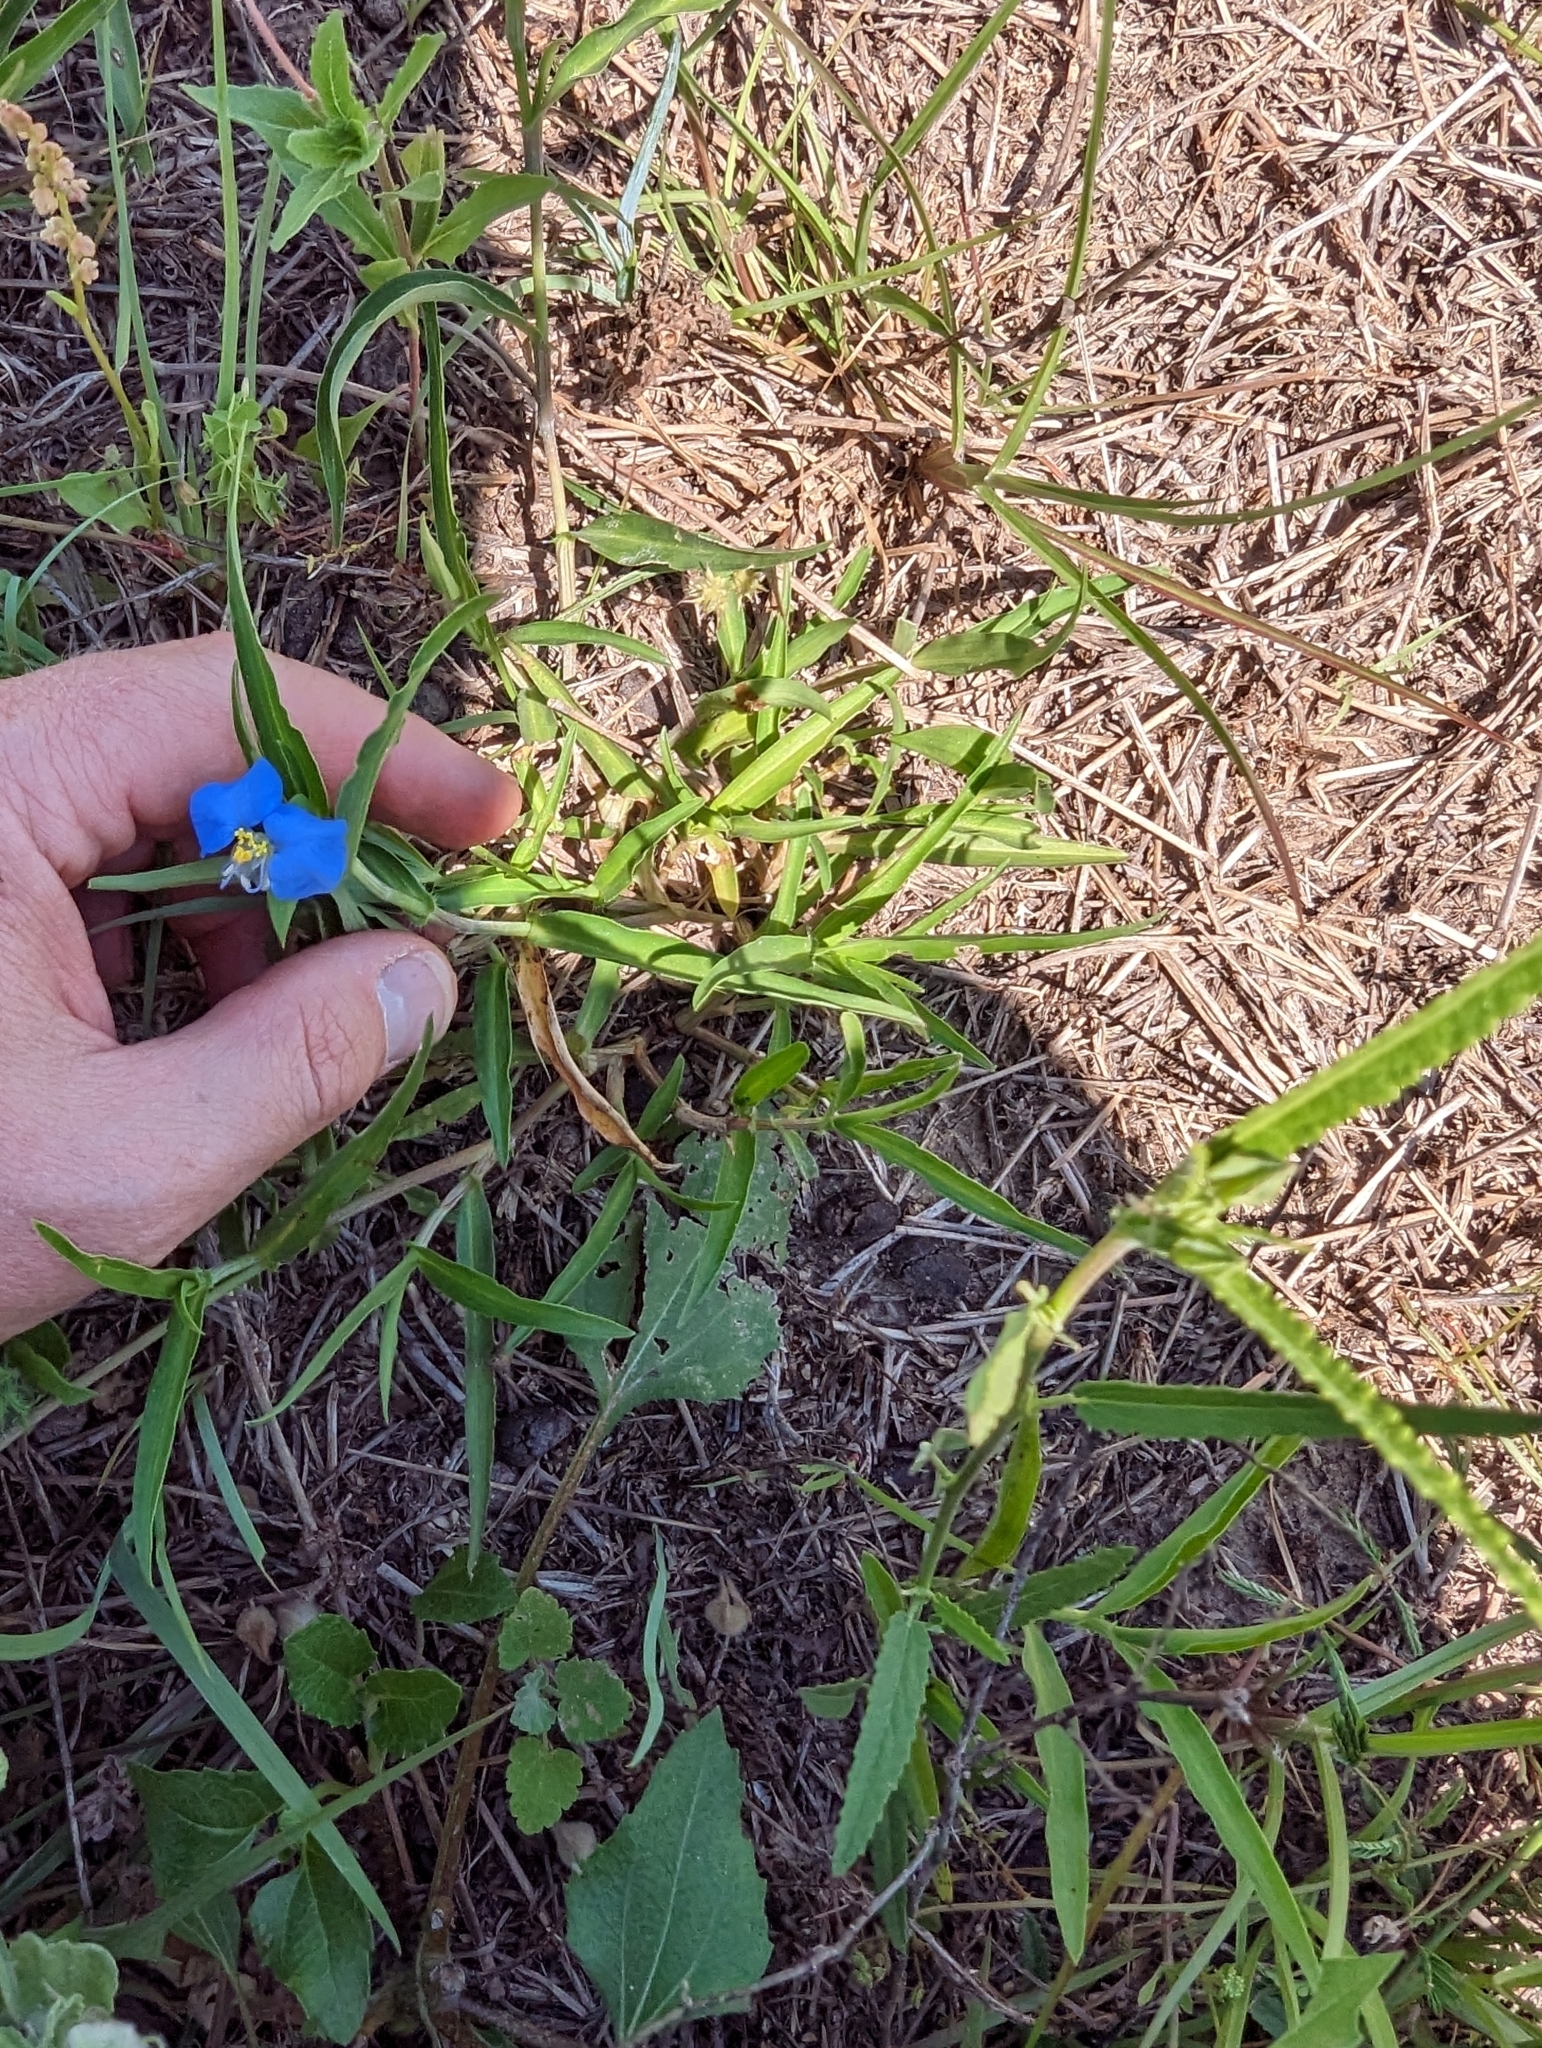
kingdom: Plantae
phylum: Tracheophyta
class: Liliopsida
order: Commelinales
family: Commelinaceae
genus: Commelina
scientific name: Commelina erecta
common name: Blousel blommetjie
